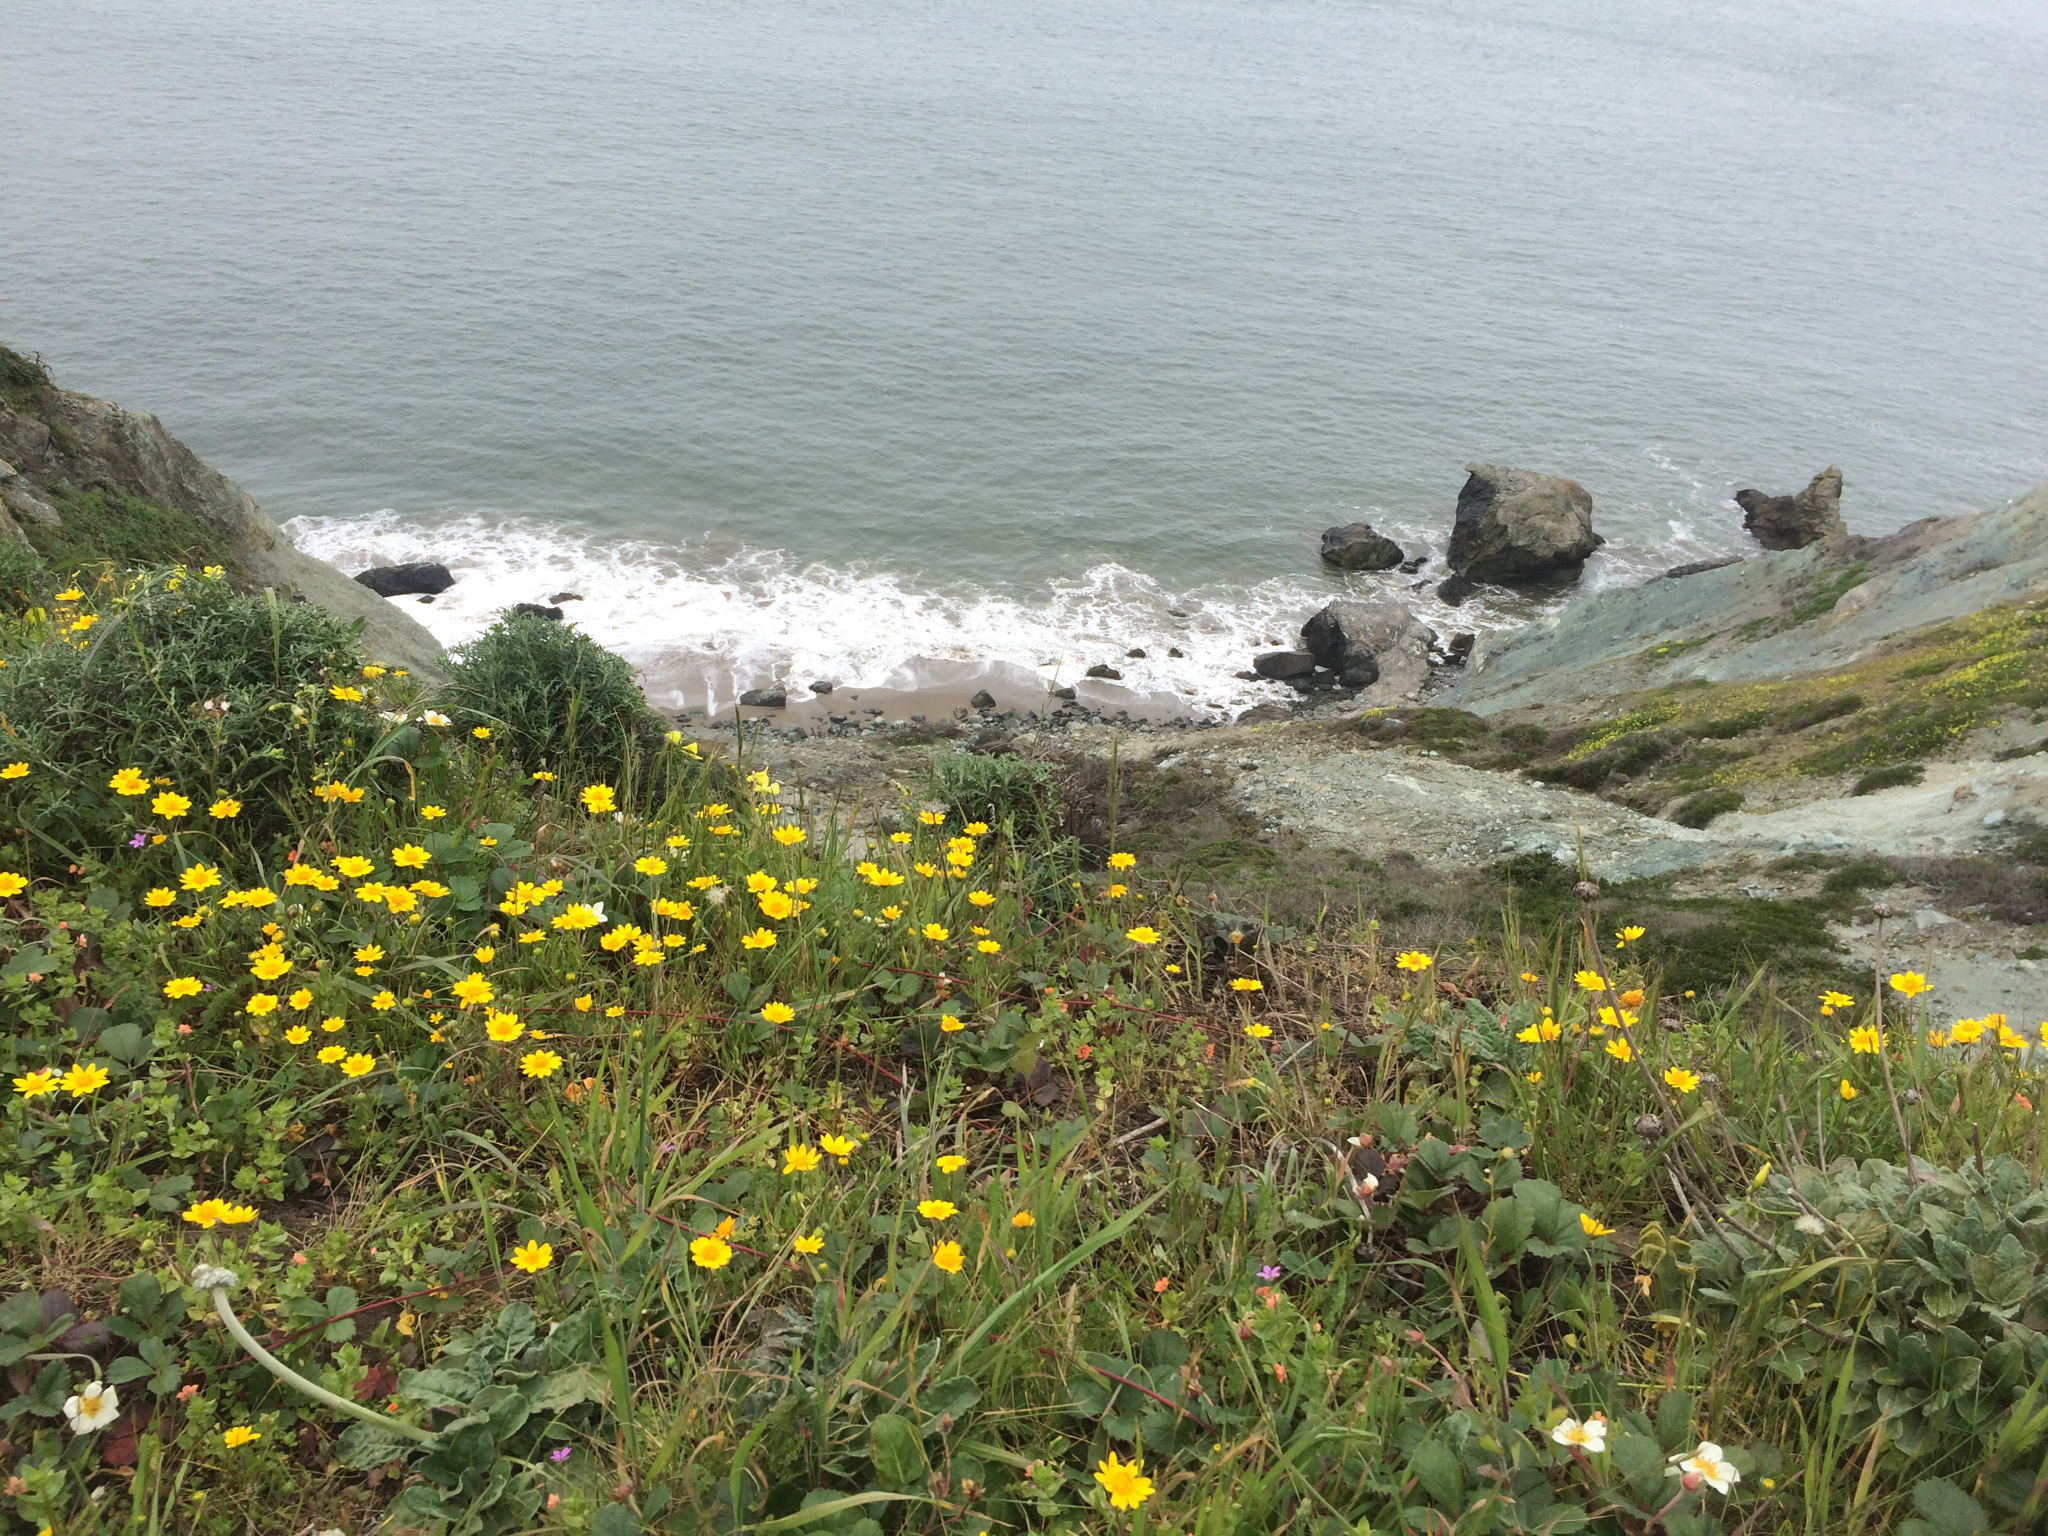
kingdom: Plantae
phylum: Tracheophyta
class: Magnoliopsida
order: Asterales
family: Asteraceae
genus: Lasthenia
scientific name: Lasthenia californica
